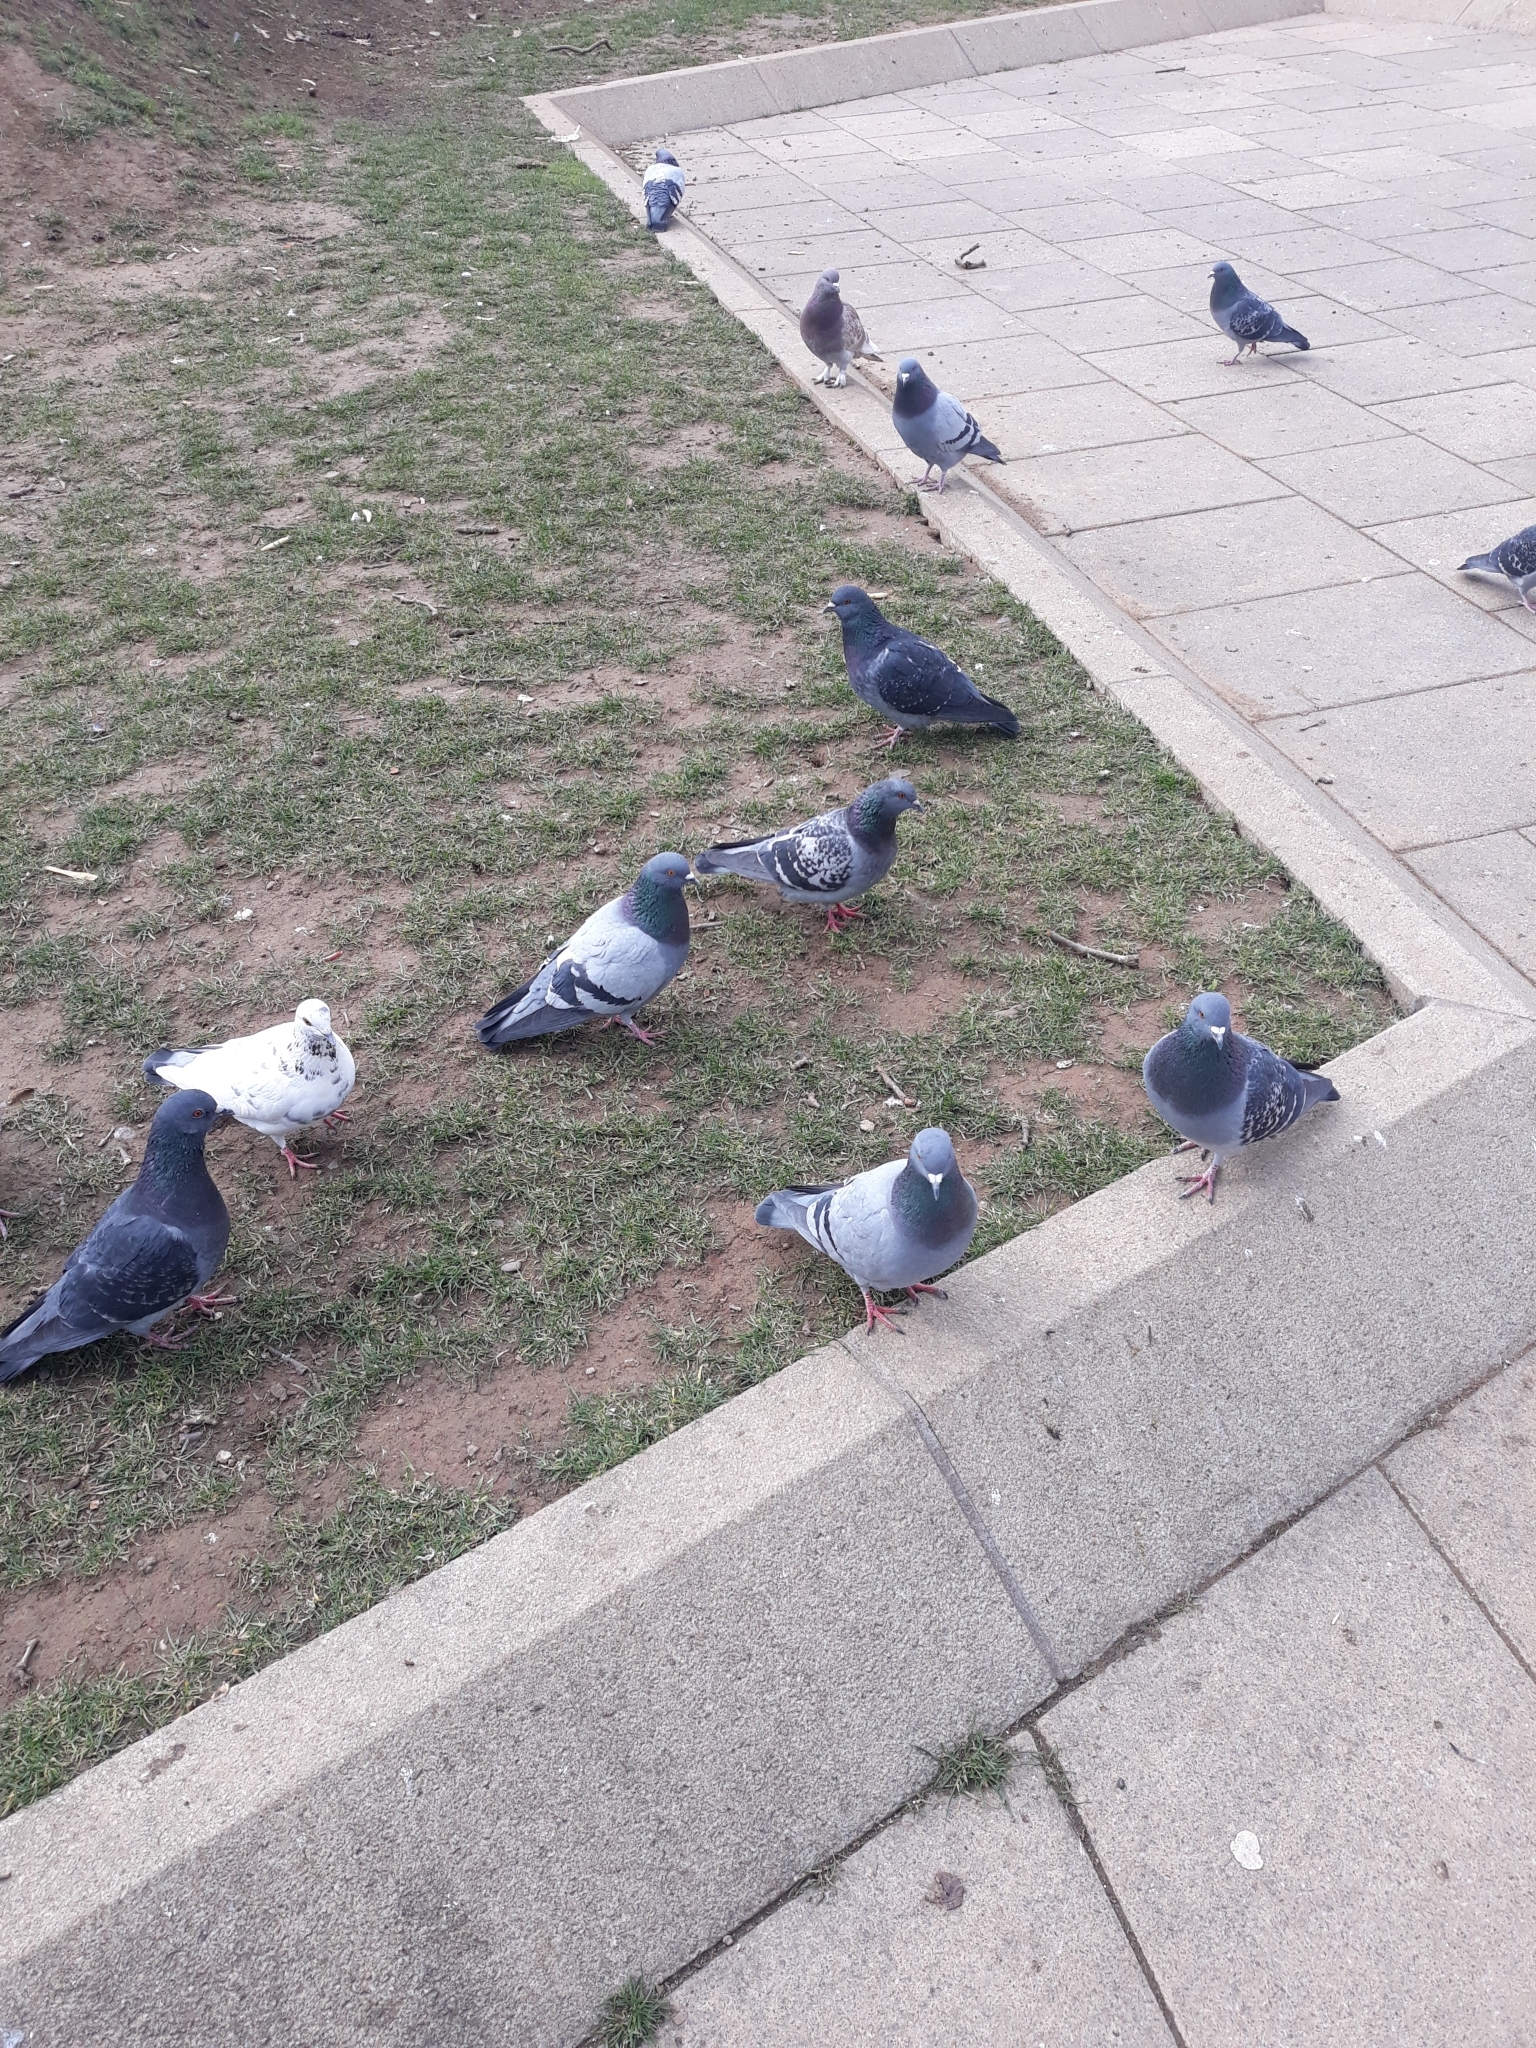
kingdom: Animalia
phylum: Chordata
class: Aves
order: Columbiformes
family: Columbidae
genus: Columba
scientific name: Columba livia
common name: Rock pigeon
